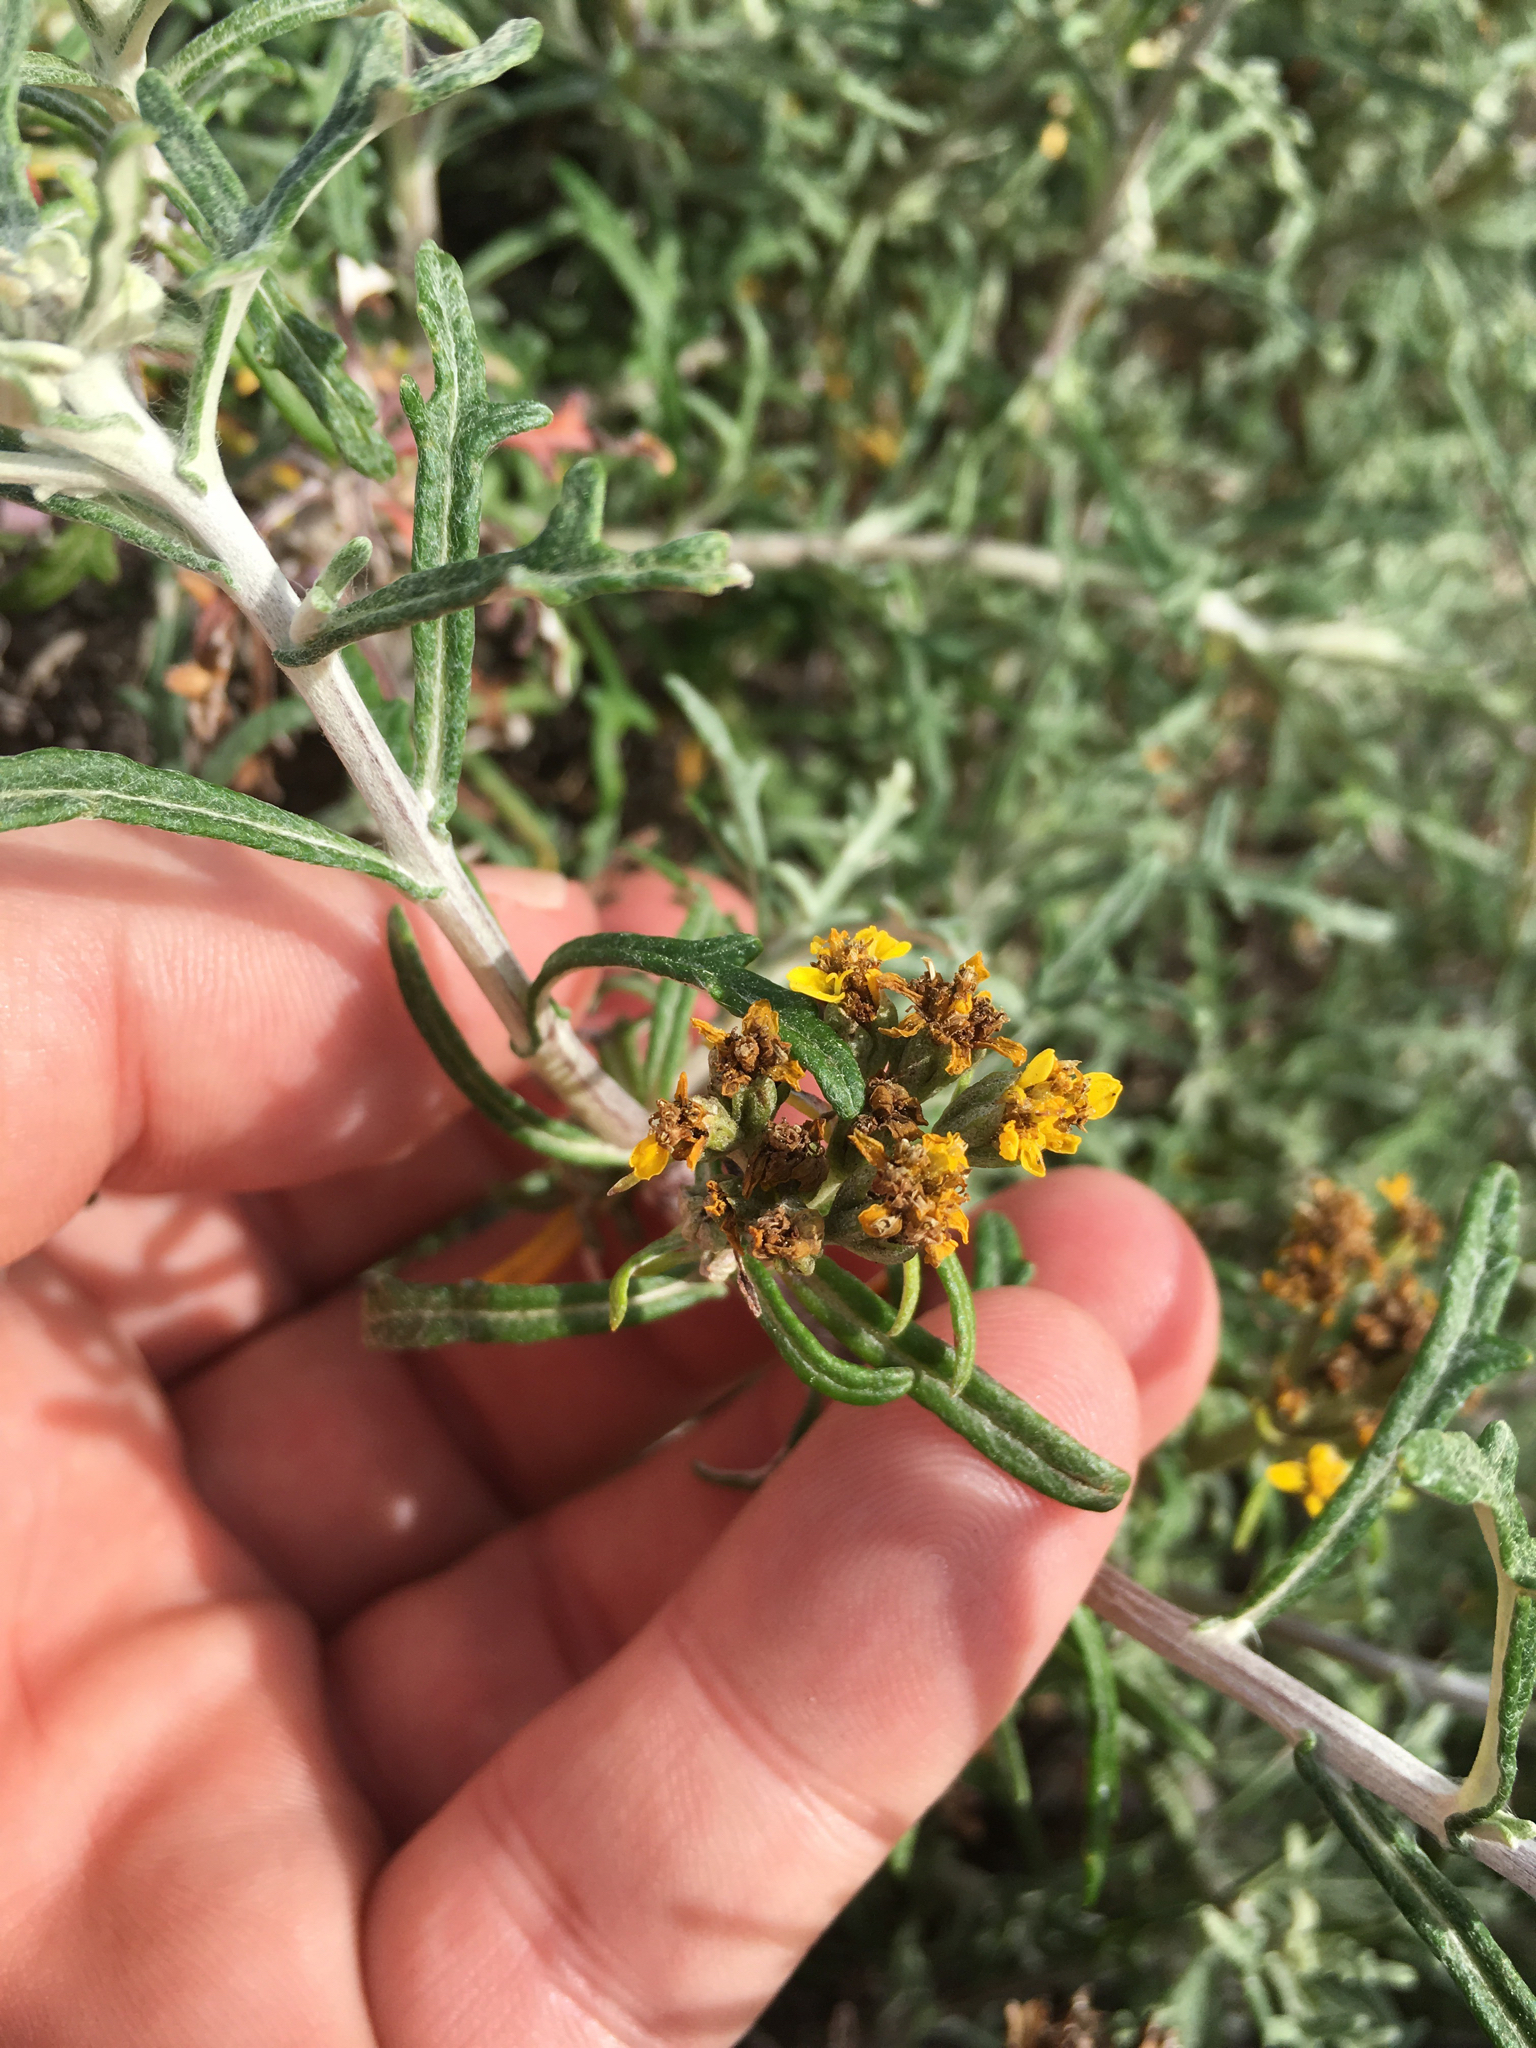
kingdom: Plantae
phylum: Tracheophyta
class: Magnoliopsida
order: Asterales
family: Asteraceae
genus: Eriophyllum
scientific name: Eriophyllum staechadifolium
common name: Lizardtail
